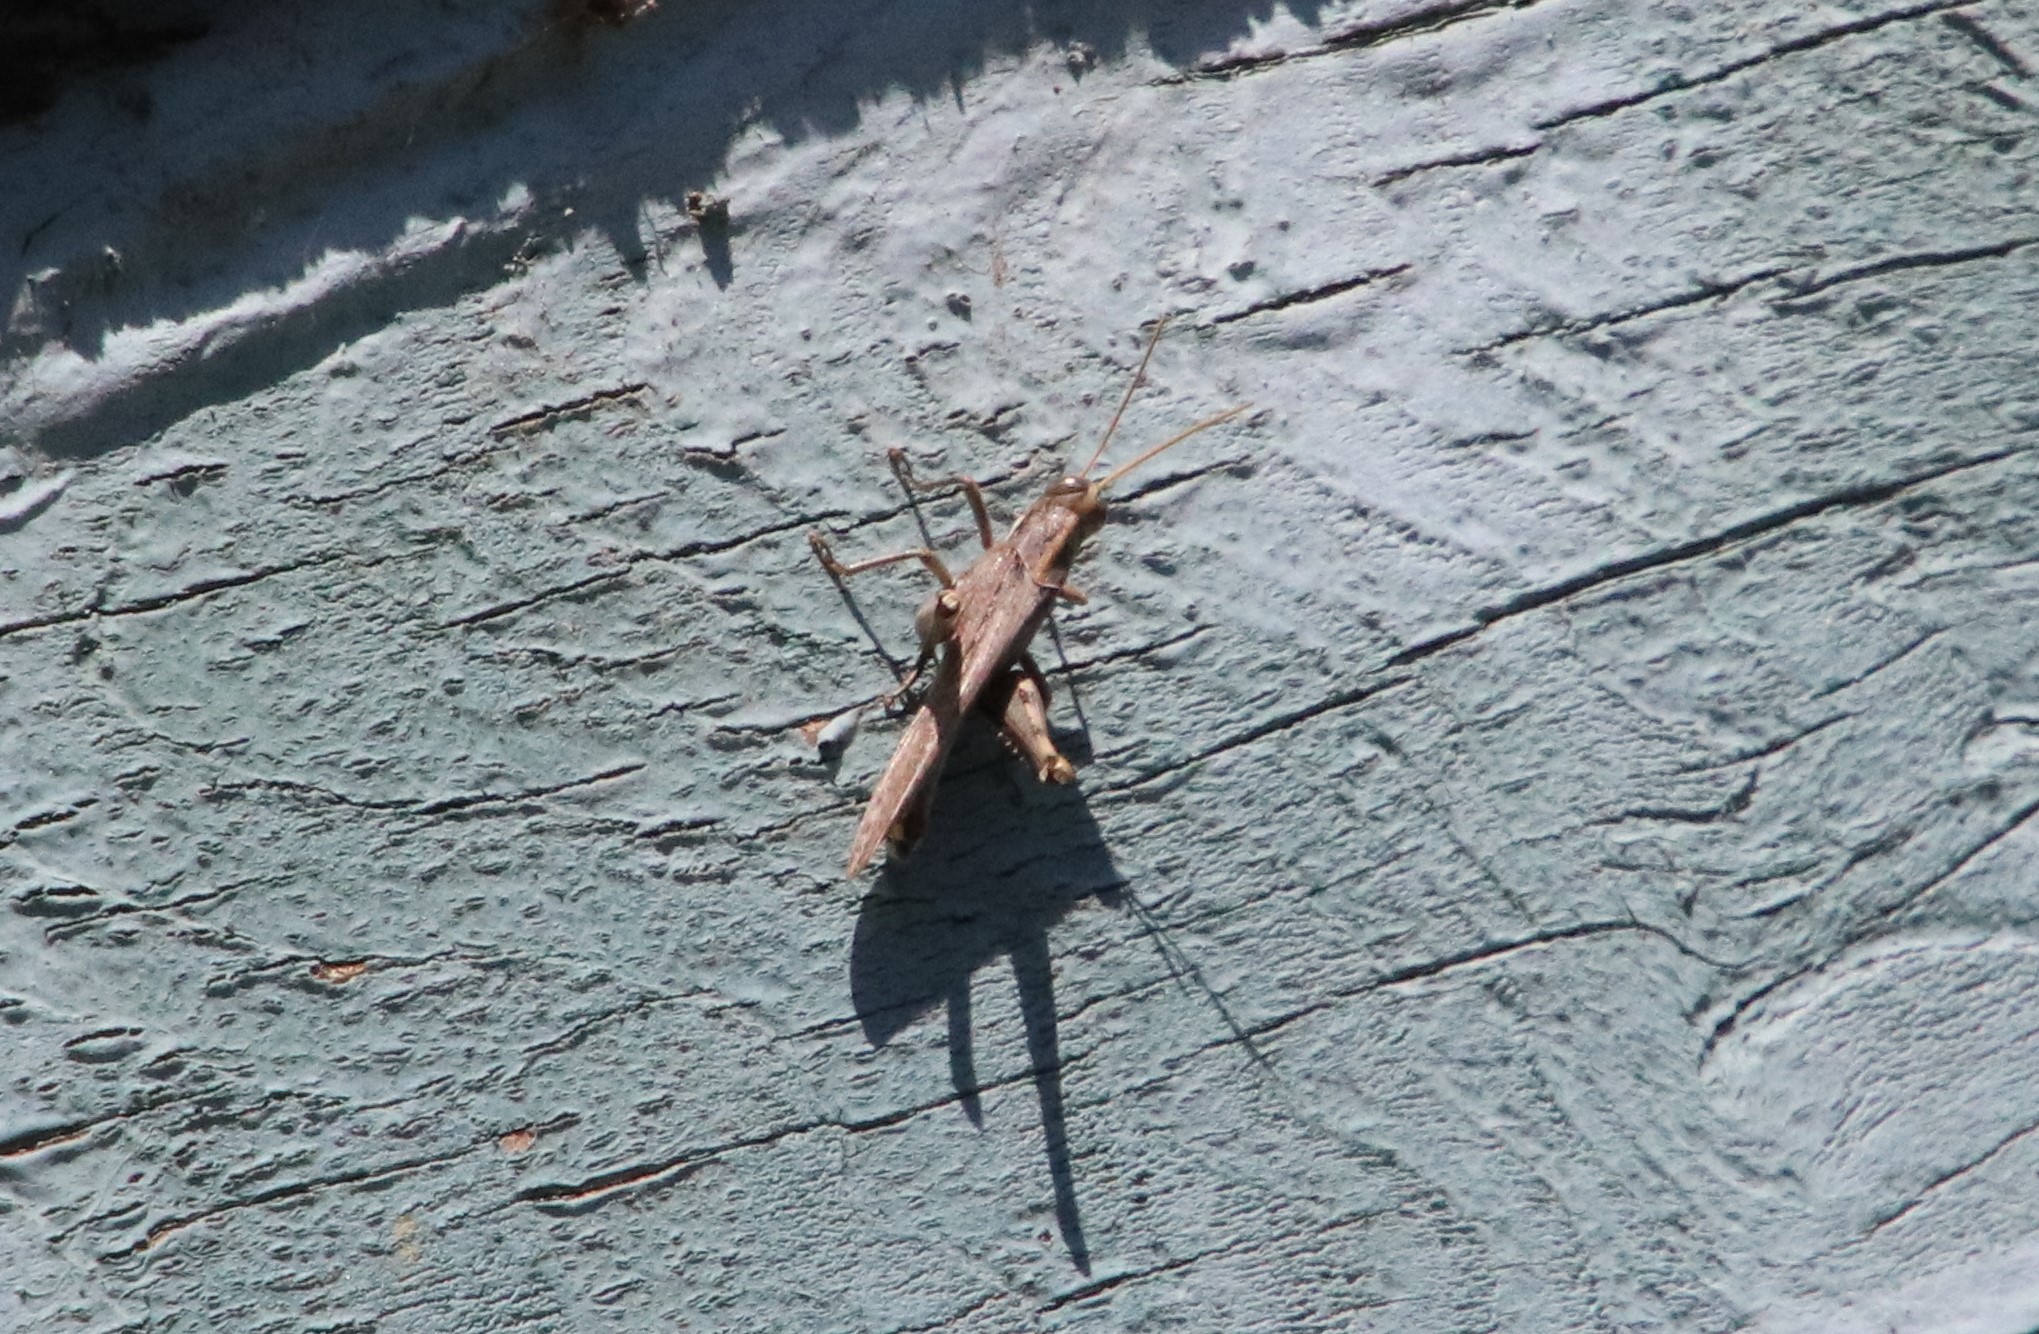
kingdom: Animalia
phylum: Arthropoda
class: Insecta
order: Orthoptera
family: Acrididae
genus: Schistocerca
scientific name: Schistocerca nitens
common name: Vagrant grasshopper
